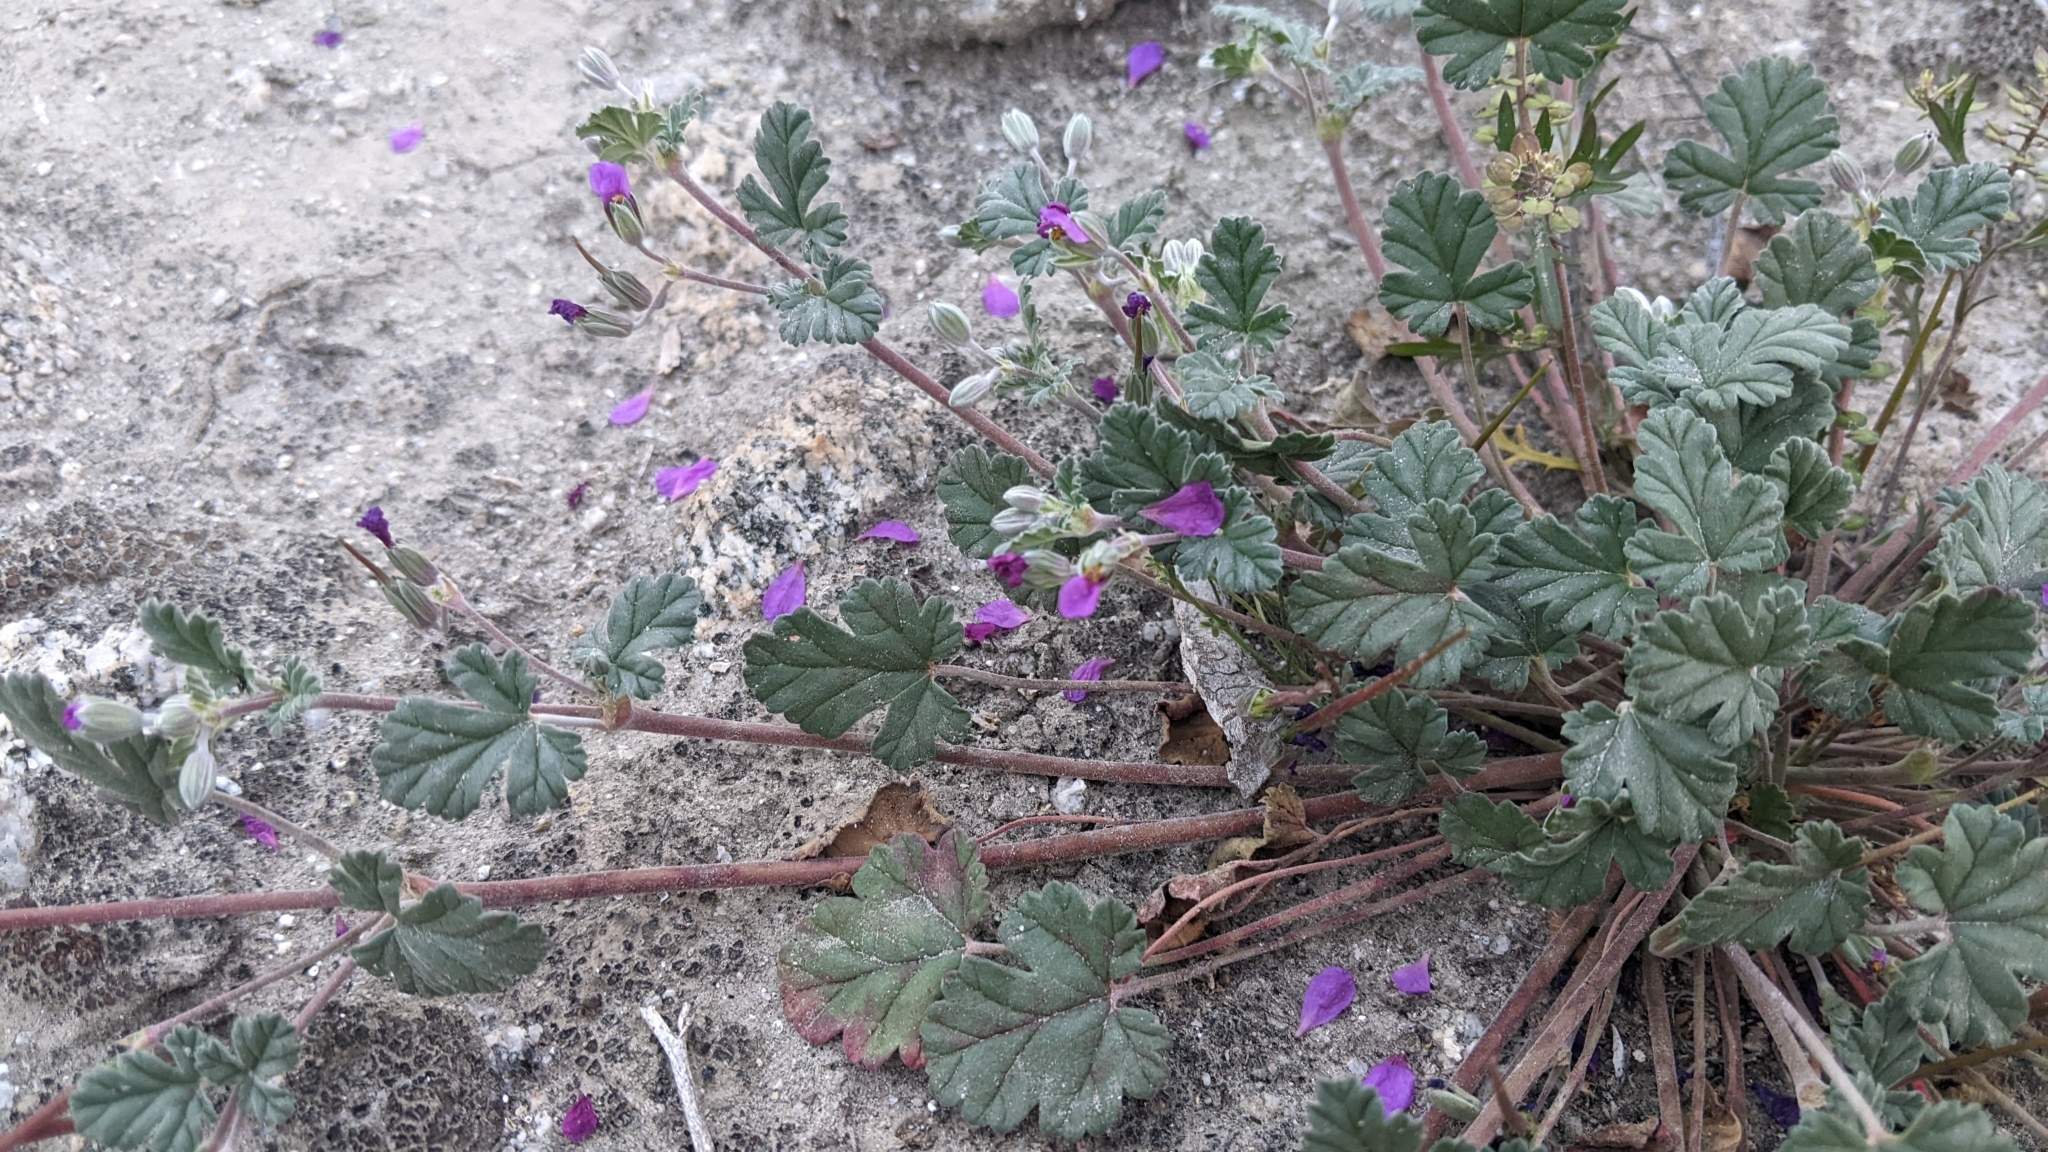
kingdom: Plantae
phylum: Tracheophyta
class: Magnoliopsida
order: Geraniales
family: Geraniaceae
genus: Erodium
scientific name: Erodium texanum
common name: Texas stork's-bill
